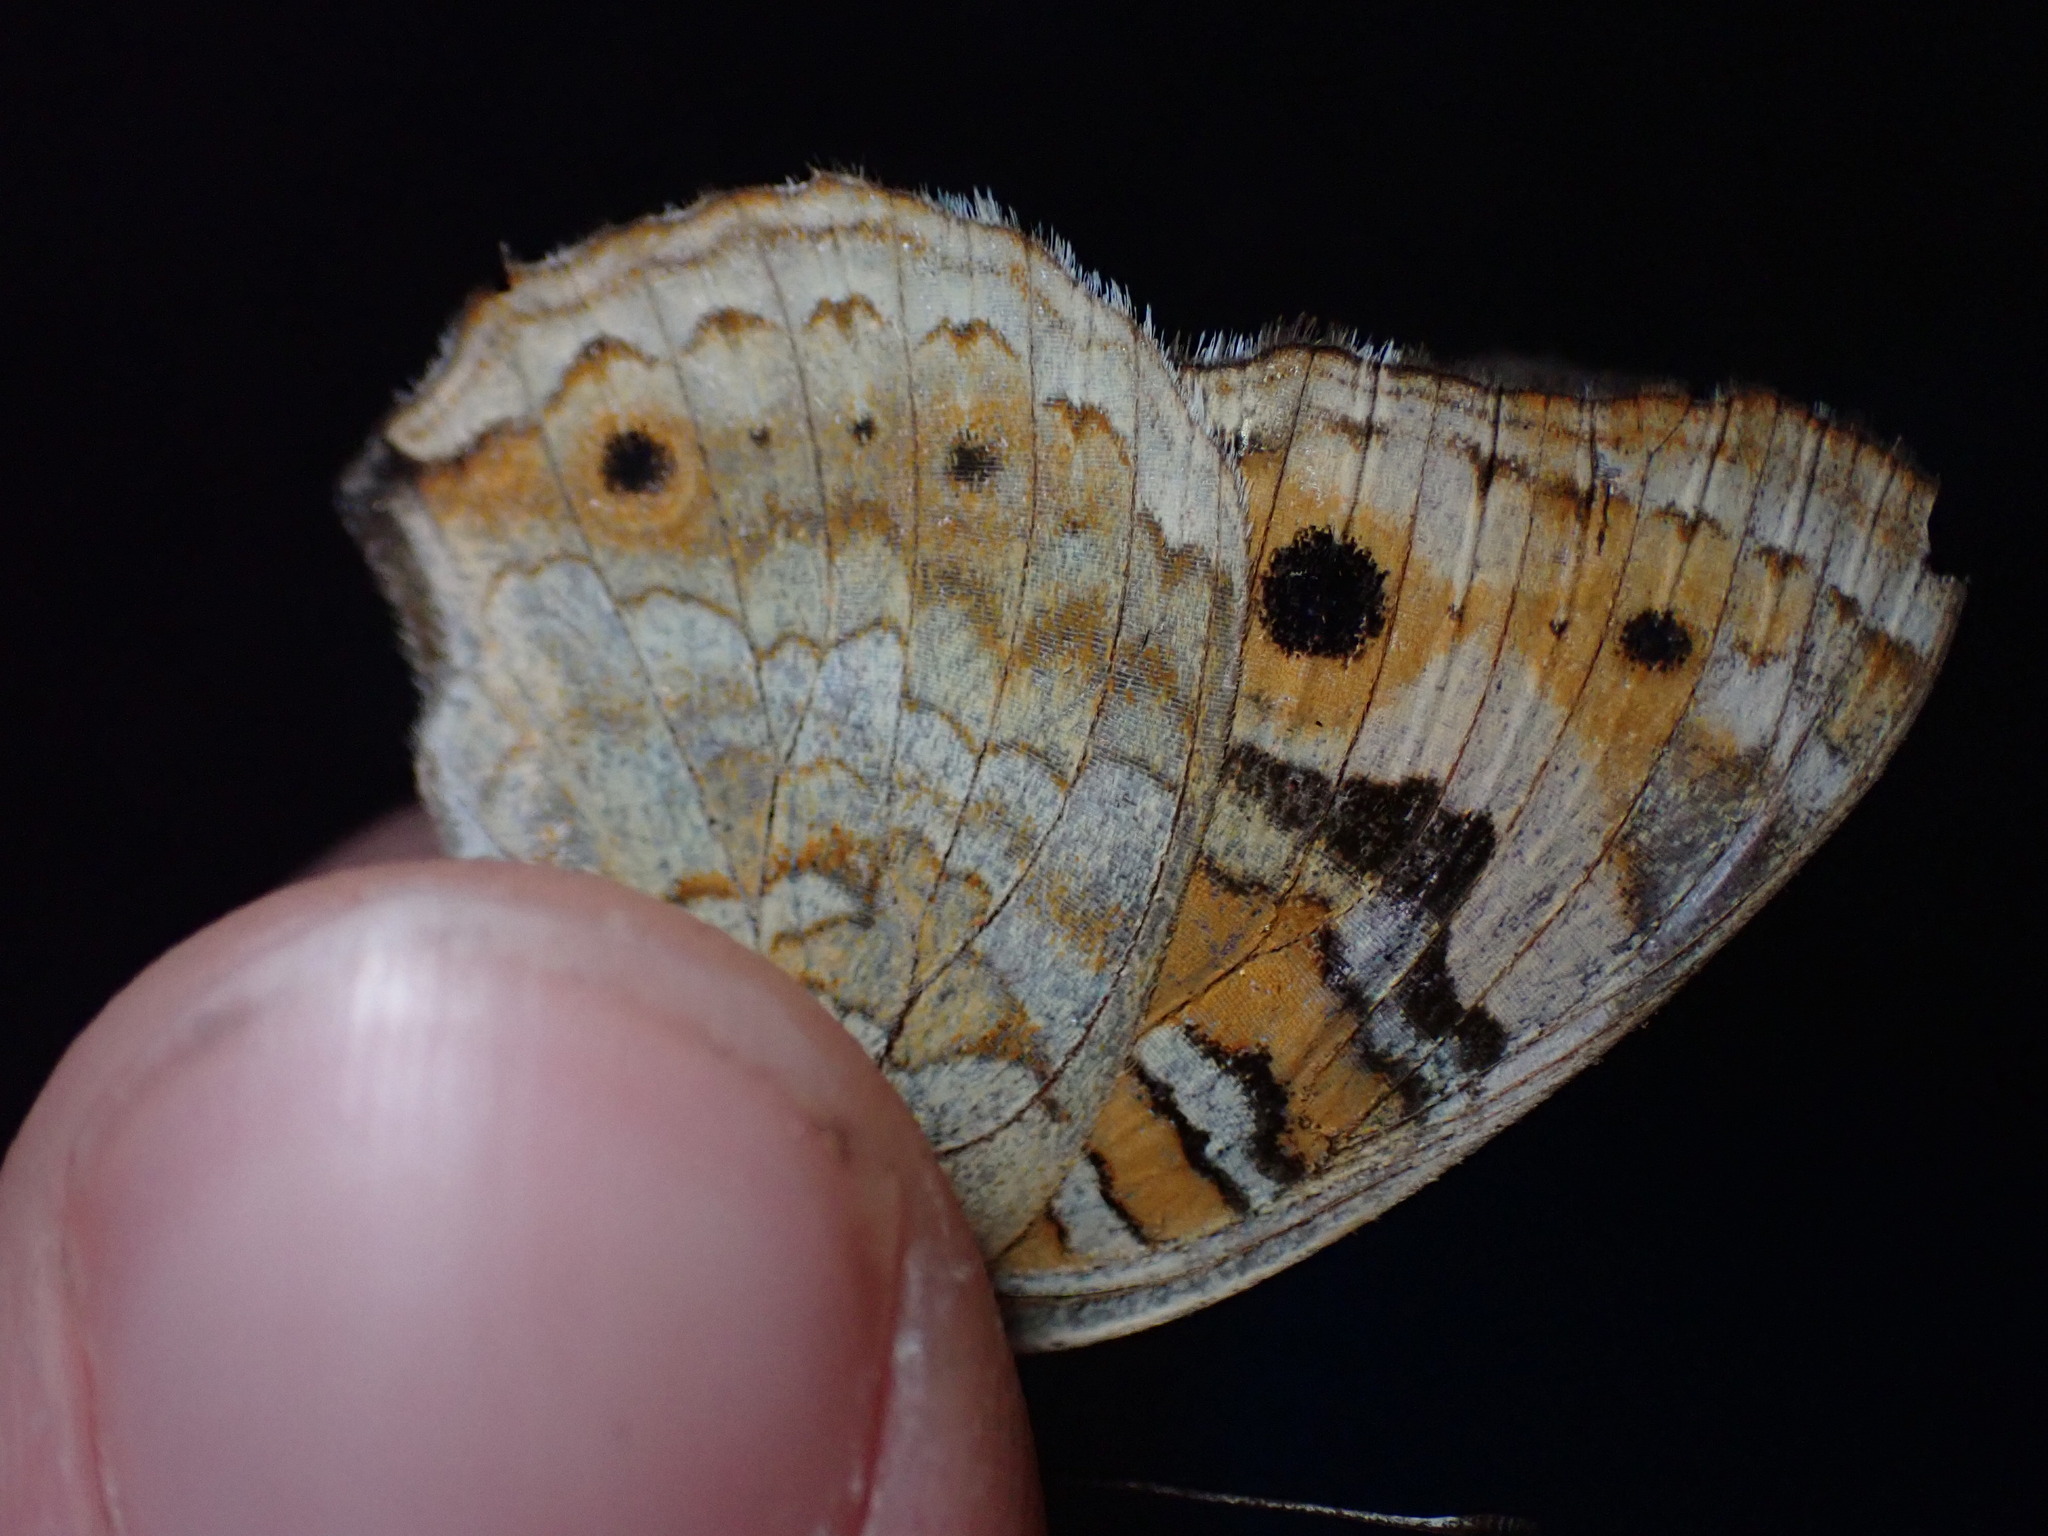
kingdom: Animalia
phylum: Arthropoda
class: Insecta
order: Lepidoptera
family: Nymphalidae
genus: Junonia
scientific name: Junonia orithya
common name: Blue pansy
